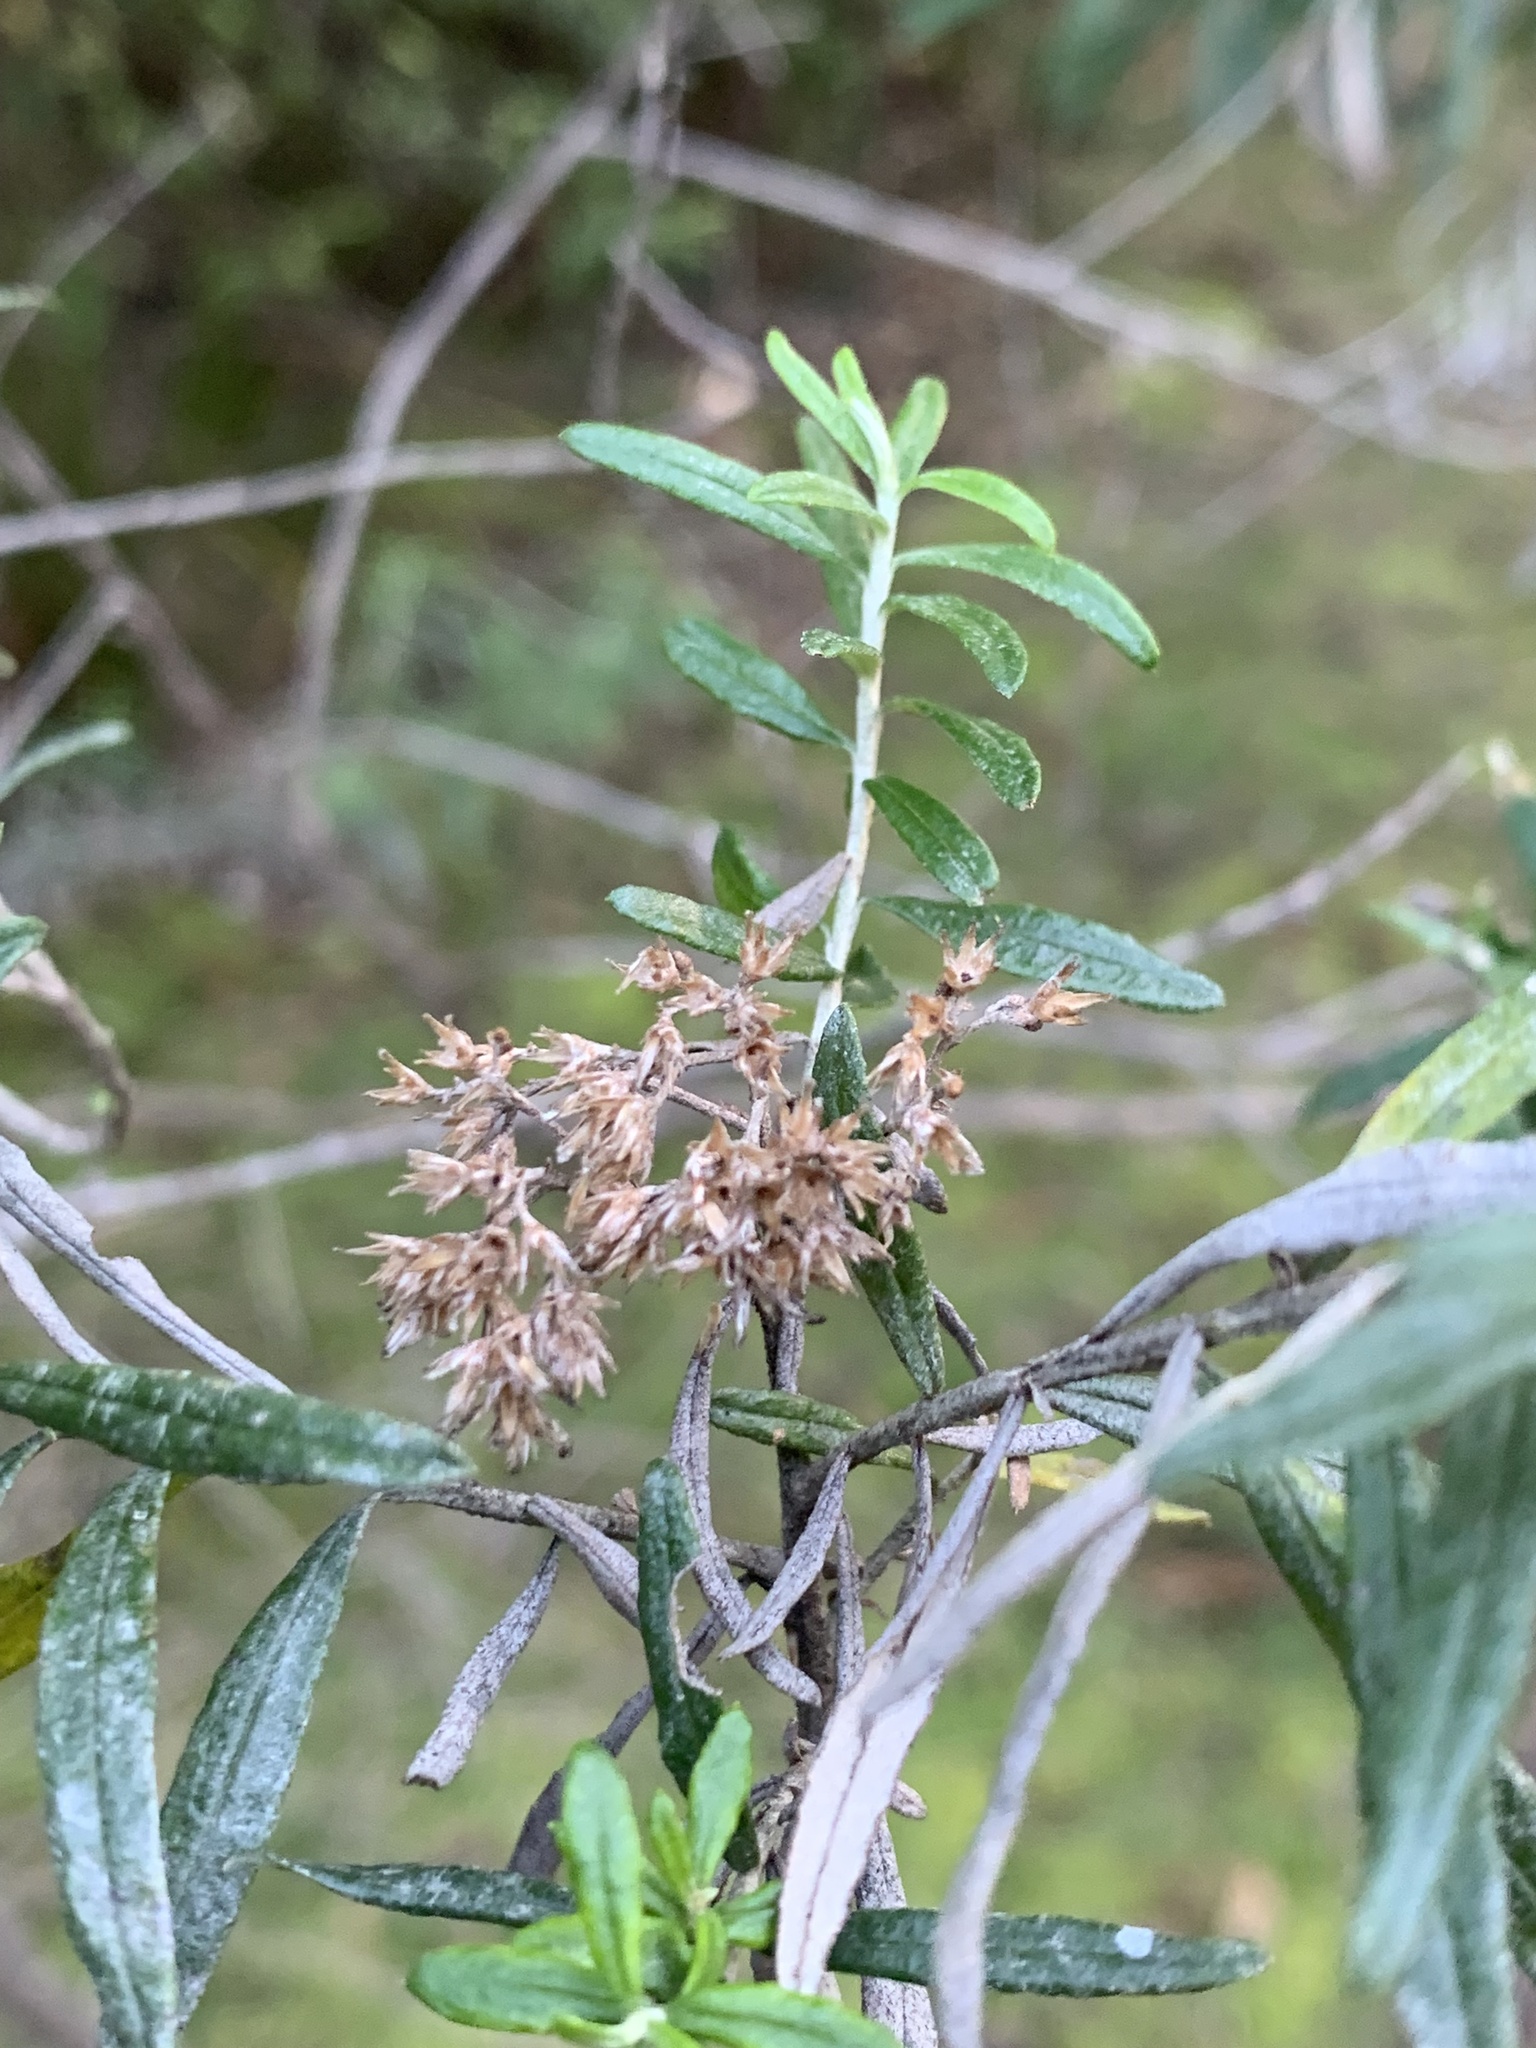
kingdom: Plantae
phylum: Tracheophyta
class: Magnoliopsida
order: Asterales
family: Asteraceae
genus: Cassinia
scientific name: Cassinia aculeata
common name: Australian tauhinu
